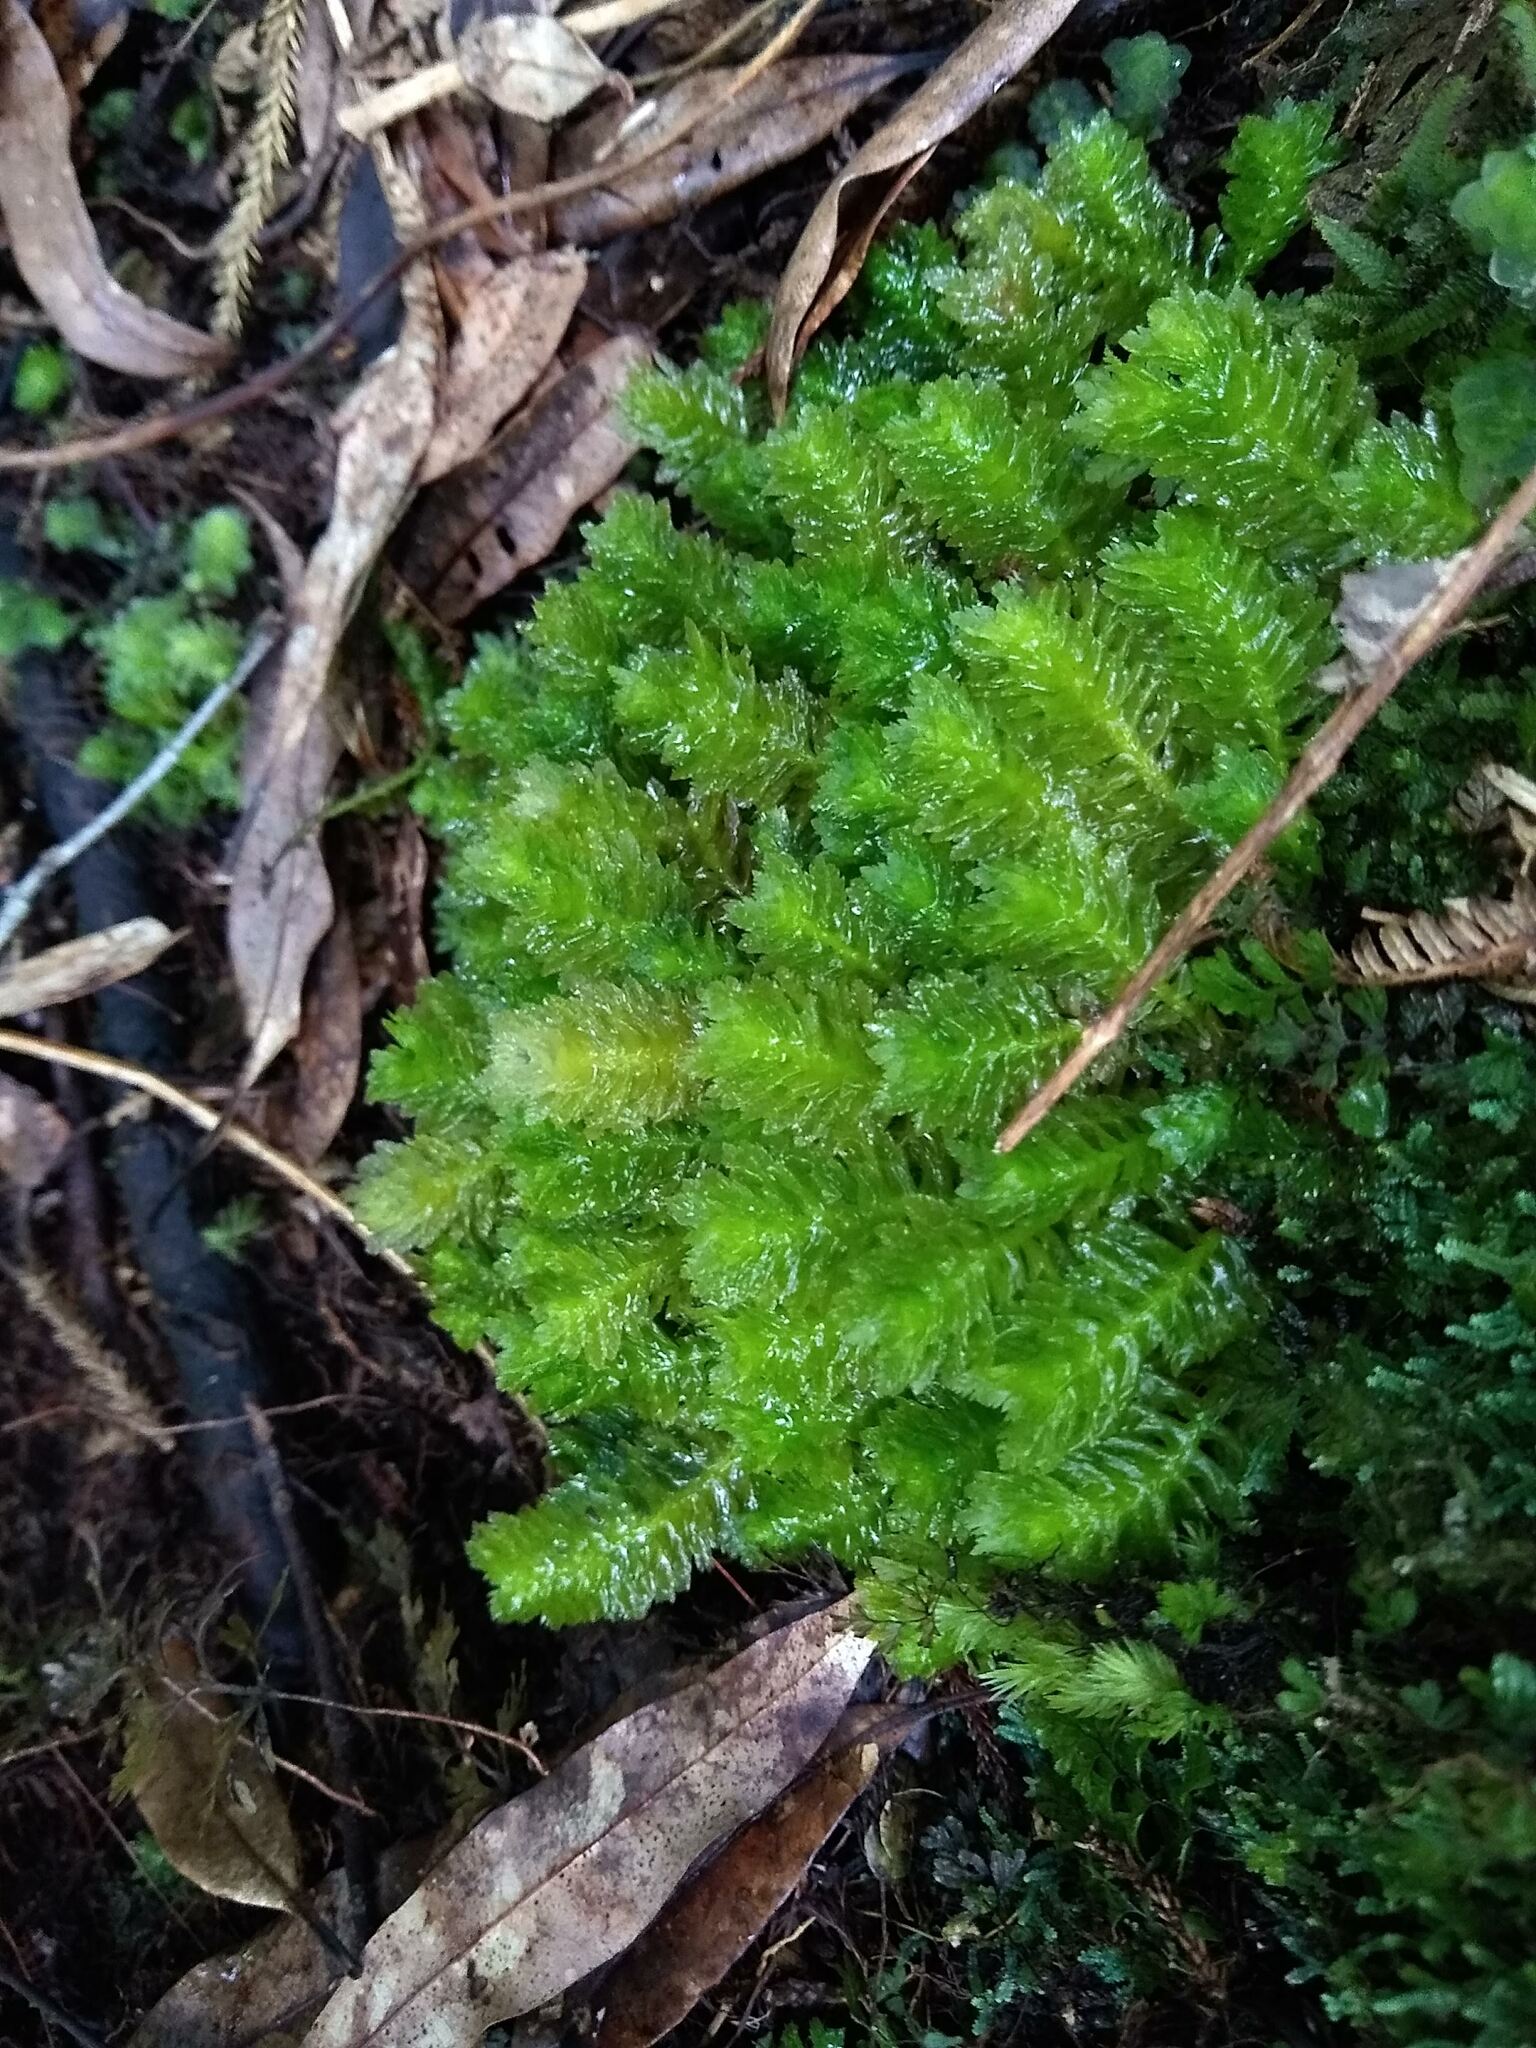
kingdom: Plantae
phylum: Marchantiophyta
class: Jungermanniopsida
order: Jungermanniales
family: Schistochilaceae
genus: Schistochila
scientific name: Schistochila appendiculata
